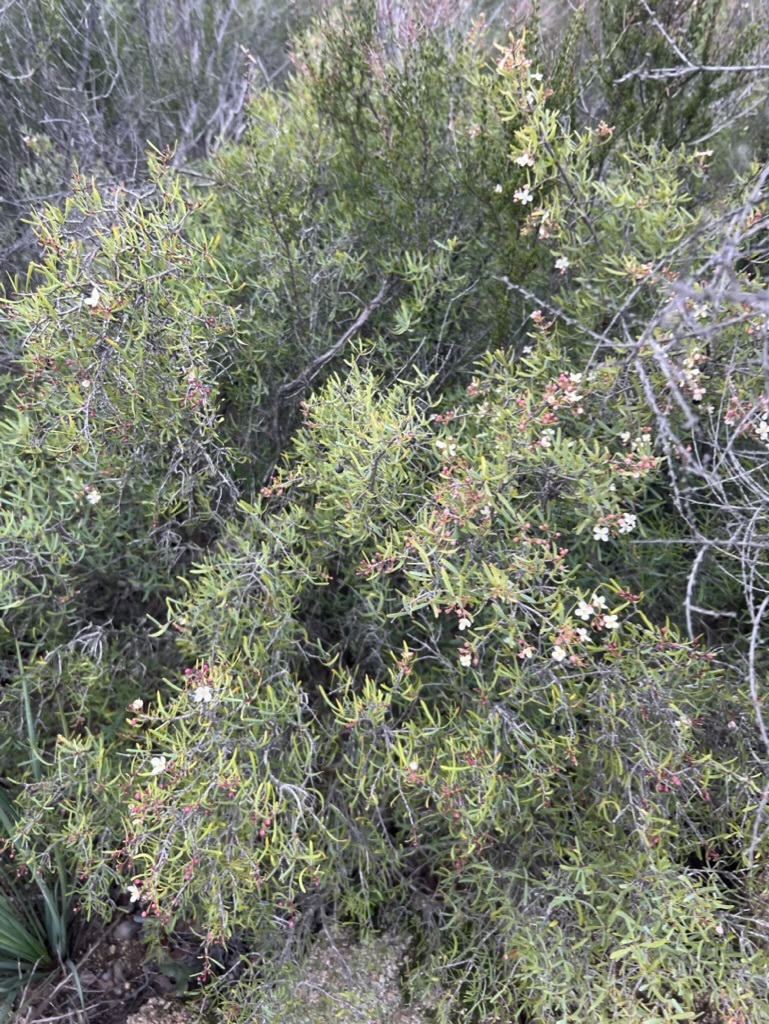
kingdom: Plantae
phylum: Tracheophyta
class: Magnoliopsida
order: Sapindales
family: Rutaceae
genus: Cneoridium
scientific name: Cneoridium dumosum
